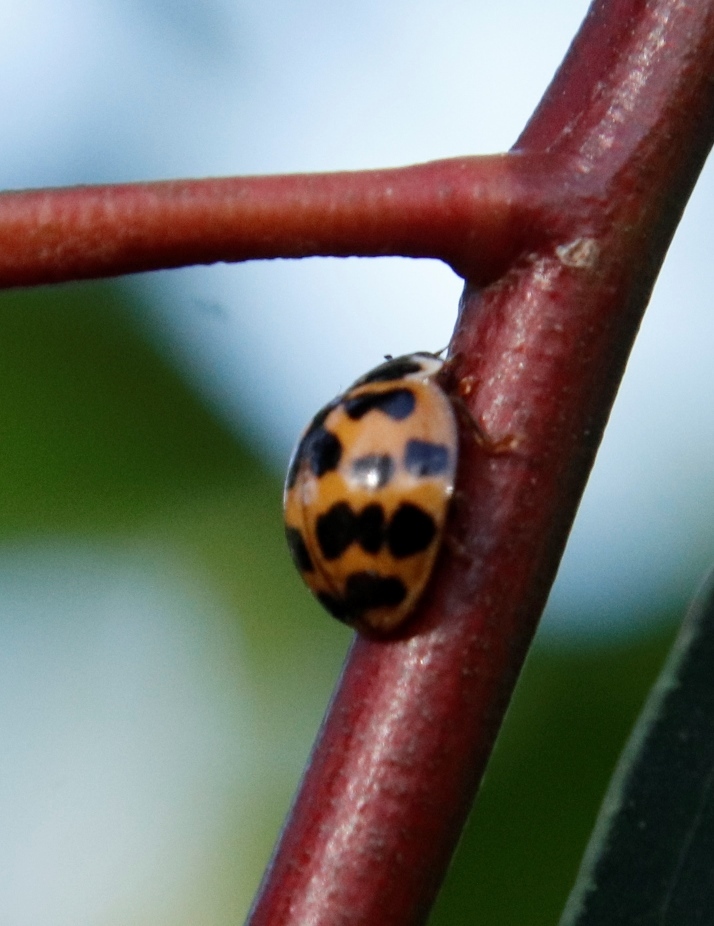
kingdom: Animalia
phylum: Arthropoda
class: Insecta
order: Coleoptera
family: Coccinellidae
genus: Harmonia
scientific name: Harmonia axyridis
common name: Harlequin ladybird
